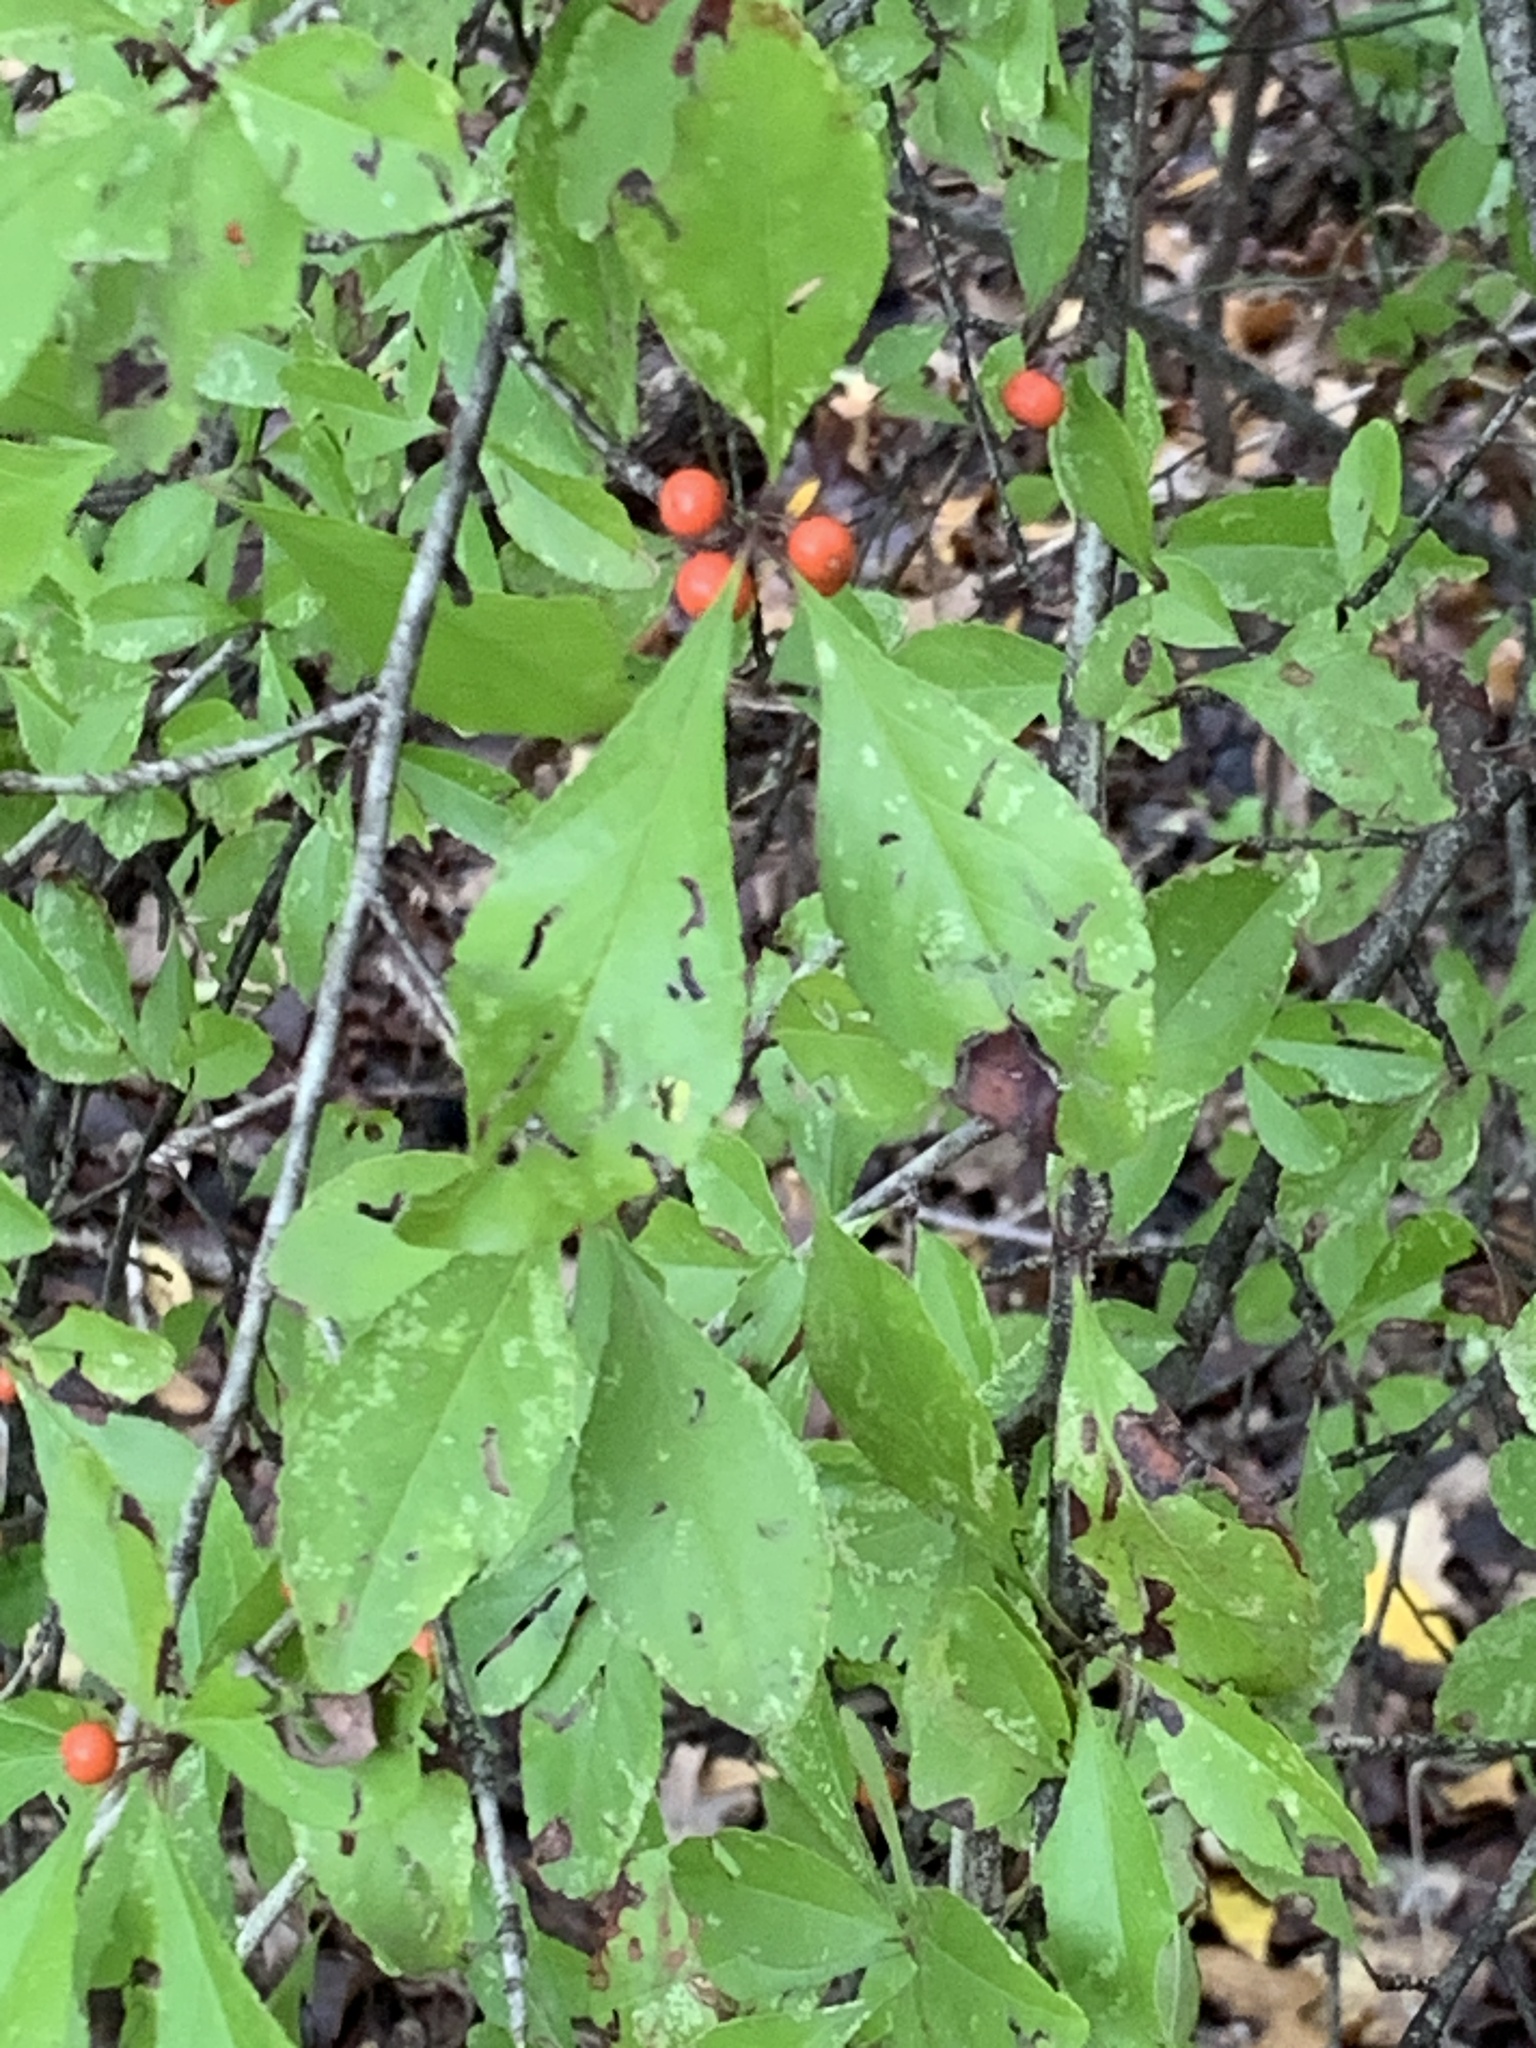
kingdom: Plantae
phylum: Tracheophyta
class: Magnoliopsida
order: Aquifoliales
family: Aquifoliaceae
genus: Ilex
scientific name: Ilex decidua
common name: Possum-haw
